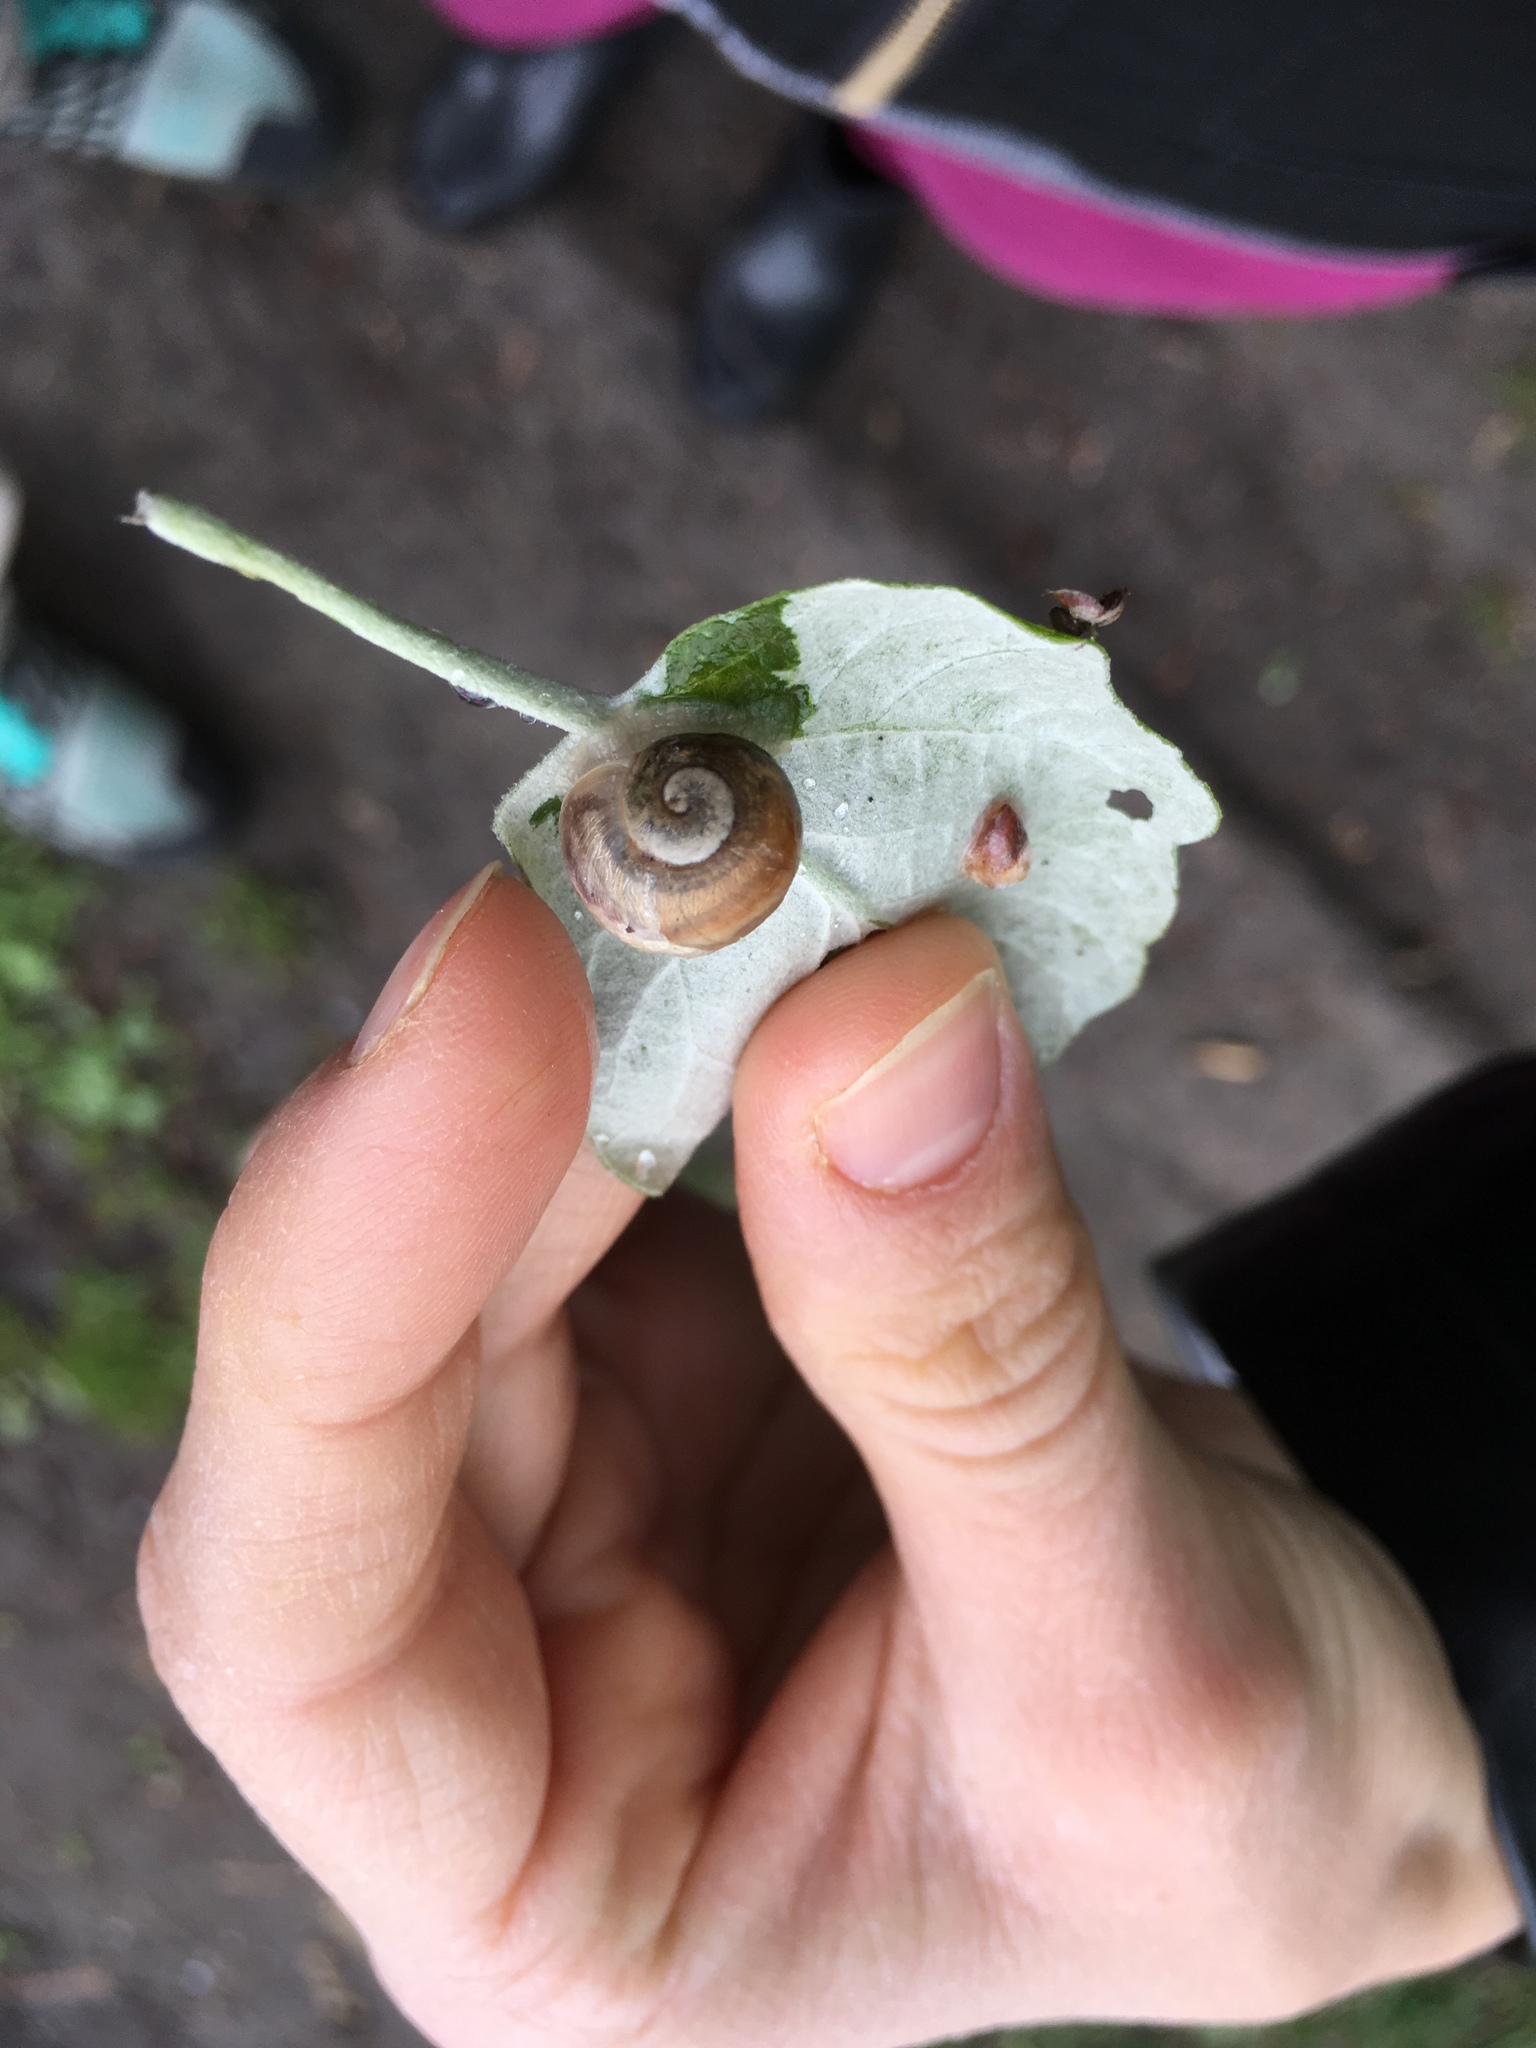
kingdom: Animalia
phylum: Mollusca
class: Gastropoda
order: Stylommatophora
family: Camaenidae
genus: Fruticicola
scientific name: Fruticicola fruticum
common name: Bush snail
